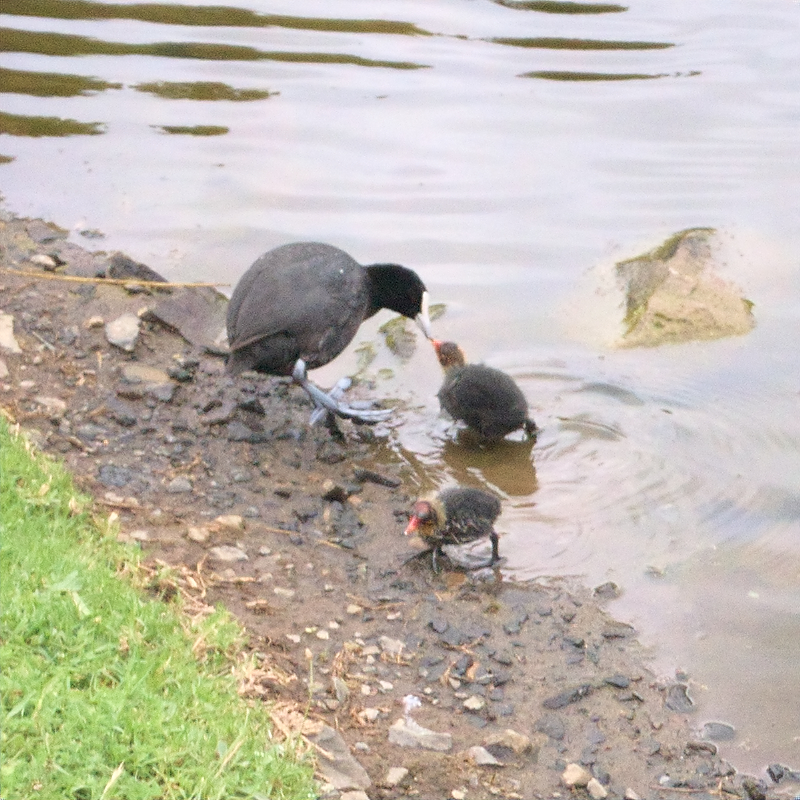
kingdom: Animalia
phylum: Chordata
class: Aves
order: Gruiformes
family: Rallidae
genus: Fulica
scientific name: Fulica atra
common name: Eurasian coot
